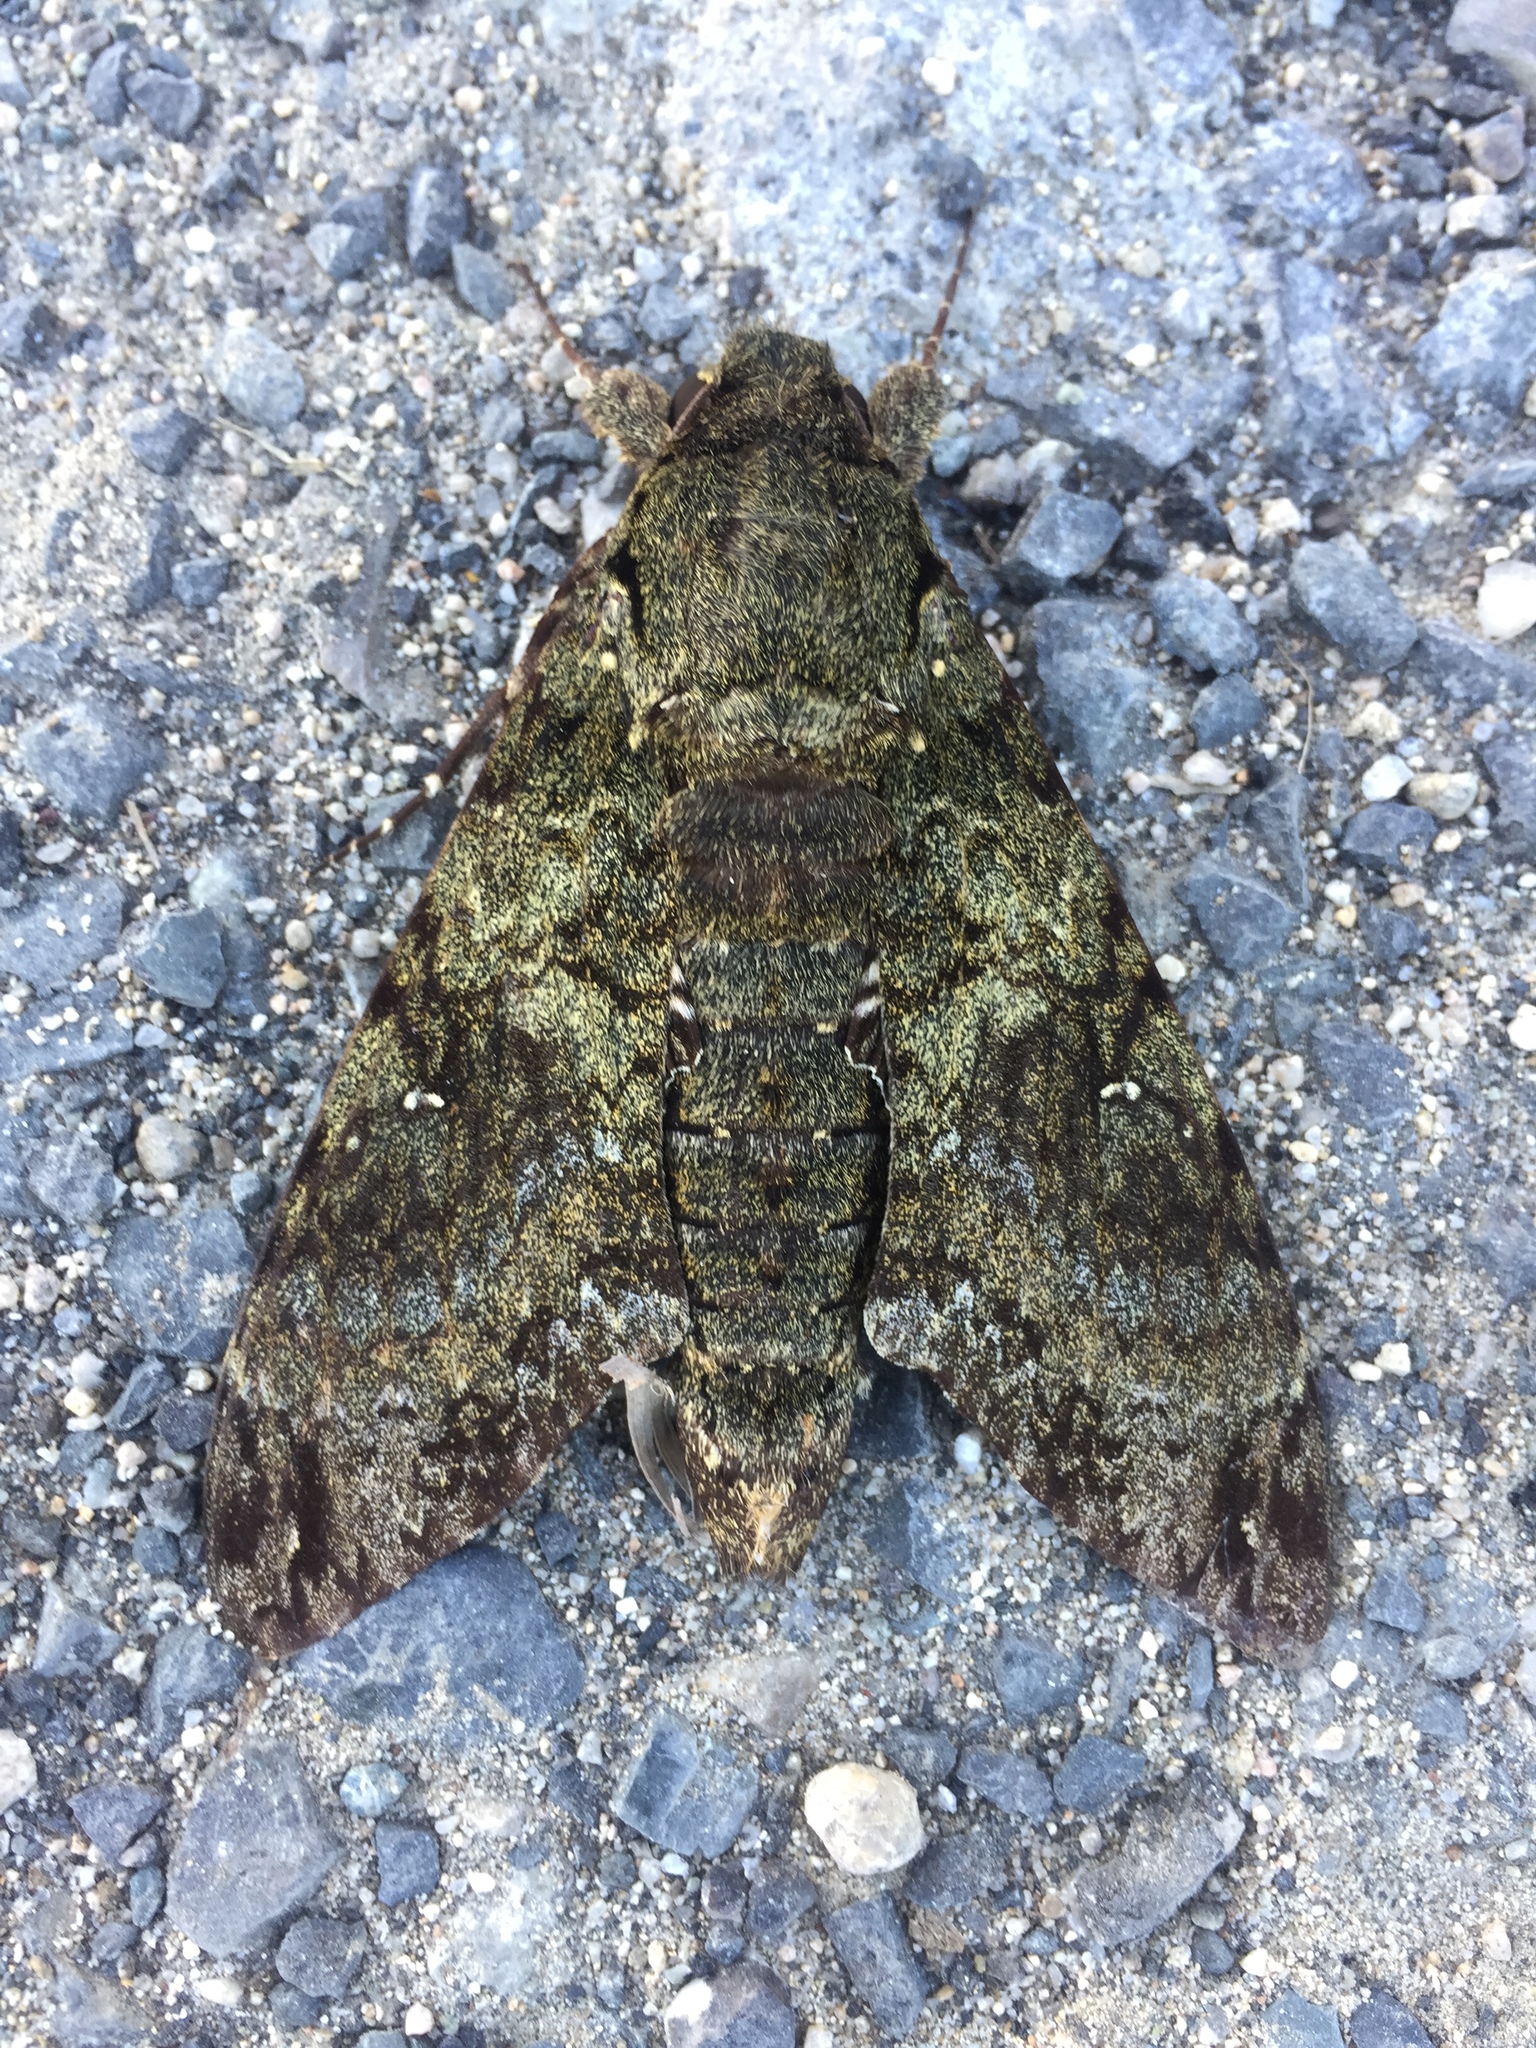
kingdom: Animalia
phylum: Arthropoda
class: Insecta
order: Lepidoptera
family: Sphingidae
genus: Cocytius
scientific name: Cocytius duponchel
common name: Duponchel's sphinx
